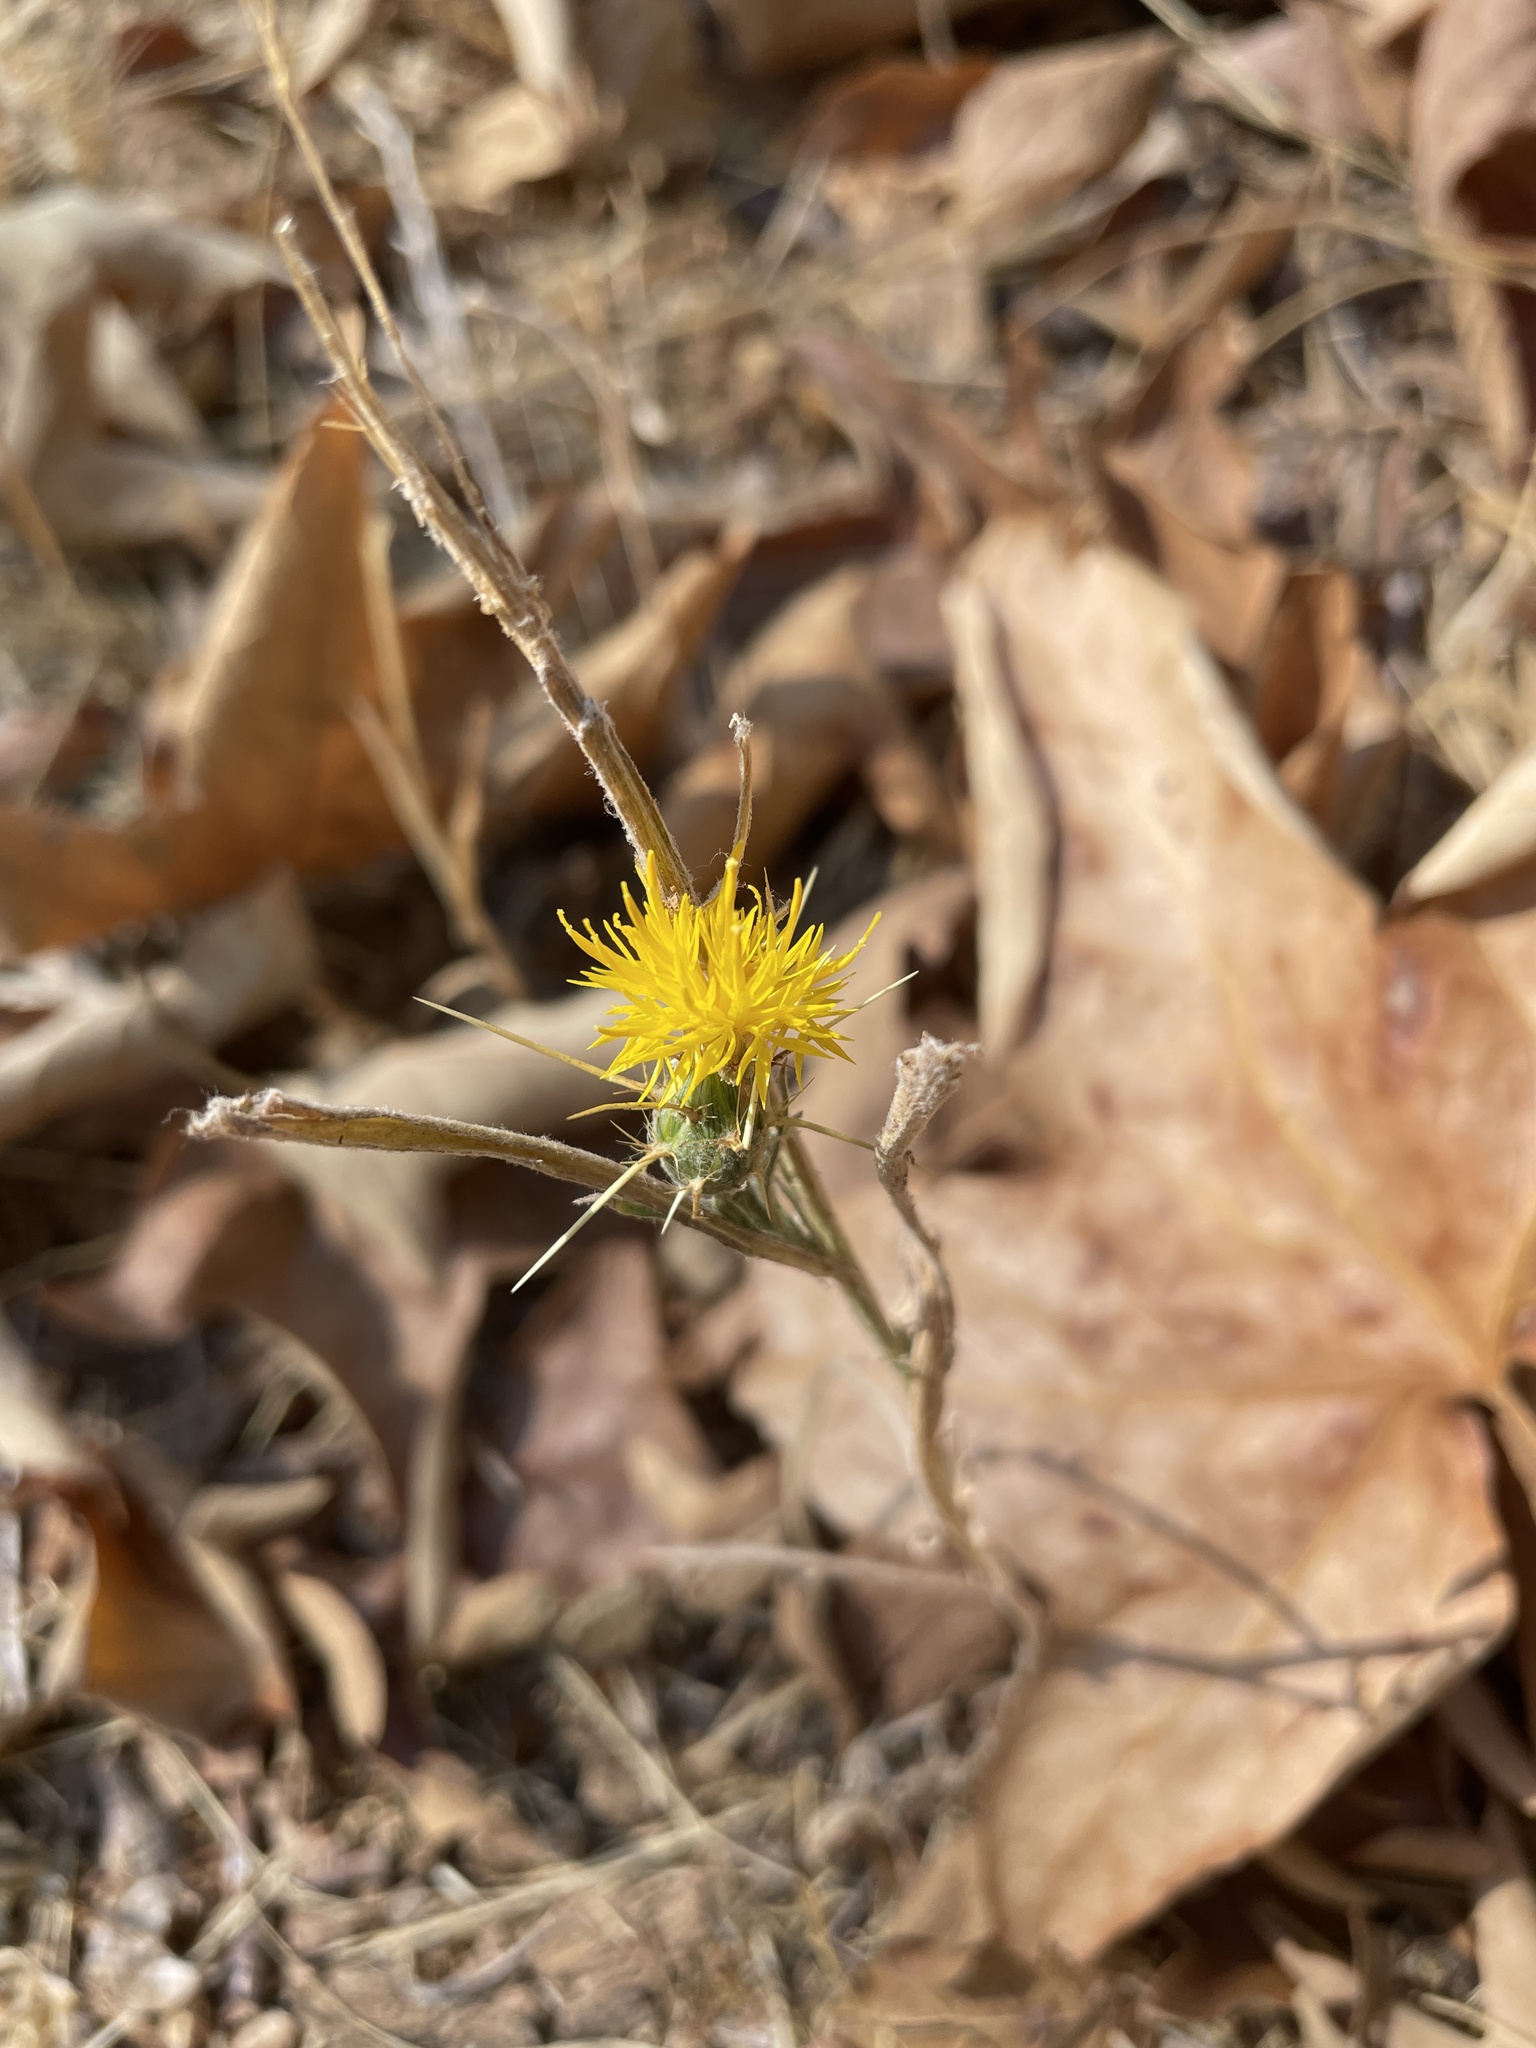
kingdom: Plantae
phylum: Tracheophyta
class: Magnoliopsida
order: Asterales
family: Asteraceae
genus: Centaurea
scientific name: Centaurea solstitialis
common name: Yellow star-thistle
